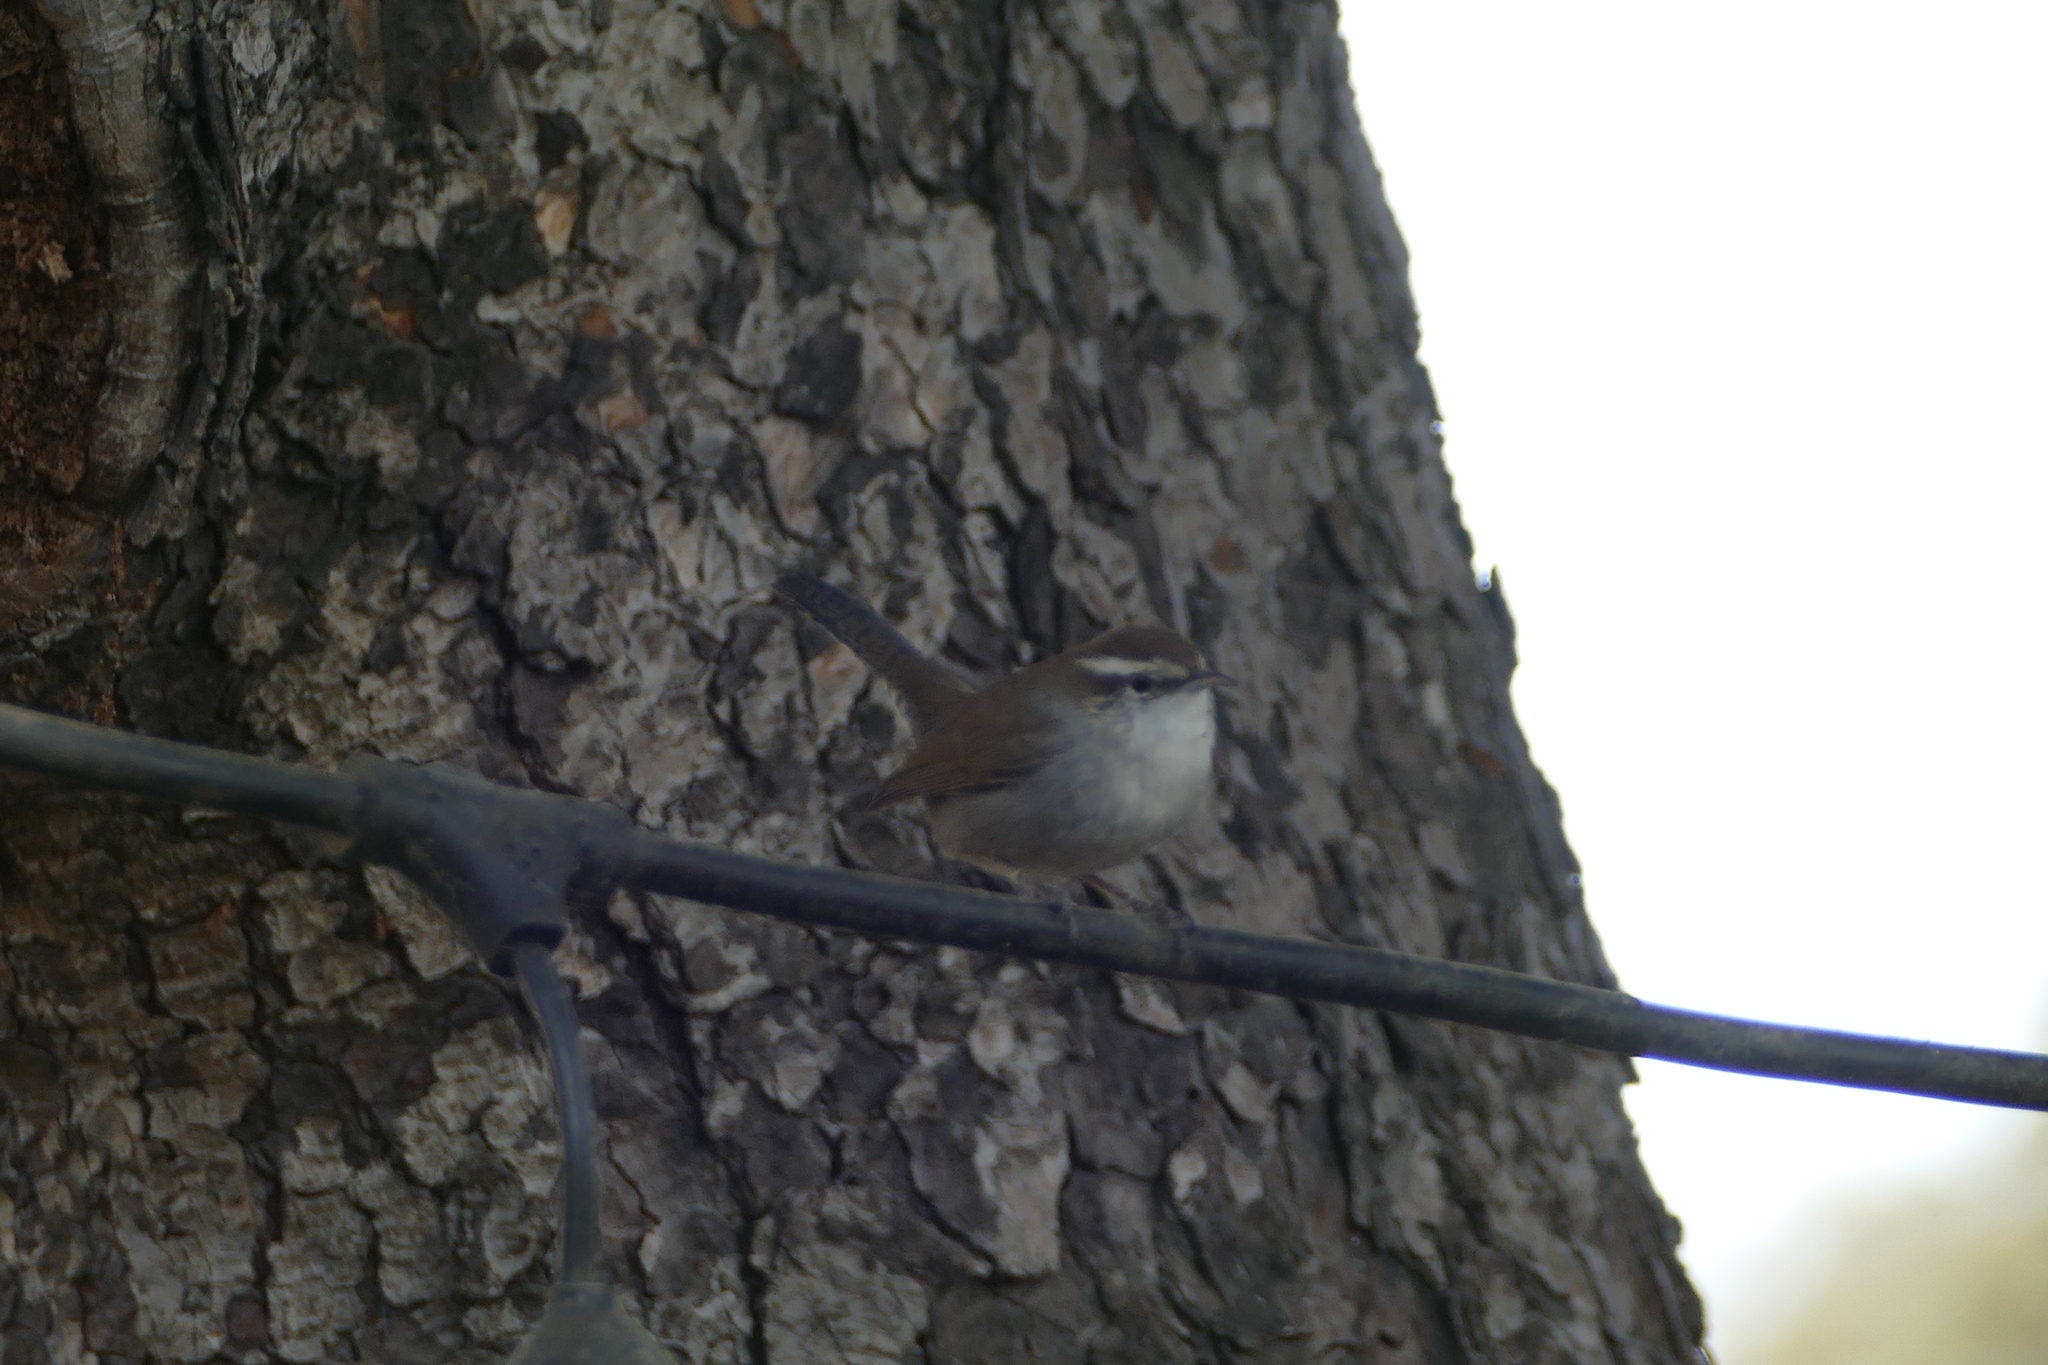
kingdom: Animalia
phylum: Chordata
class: Aves
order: Passeriformes
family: Troglodytidae
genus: Thryomanes
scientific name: Thryomanes bewickii
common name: Bewick's wren
